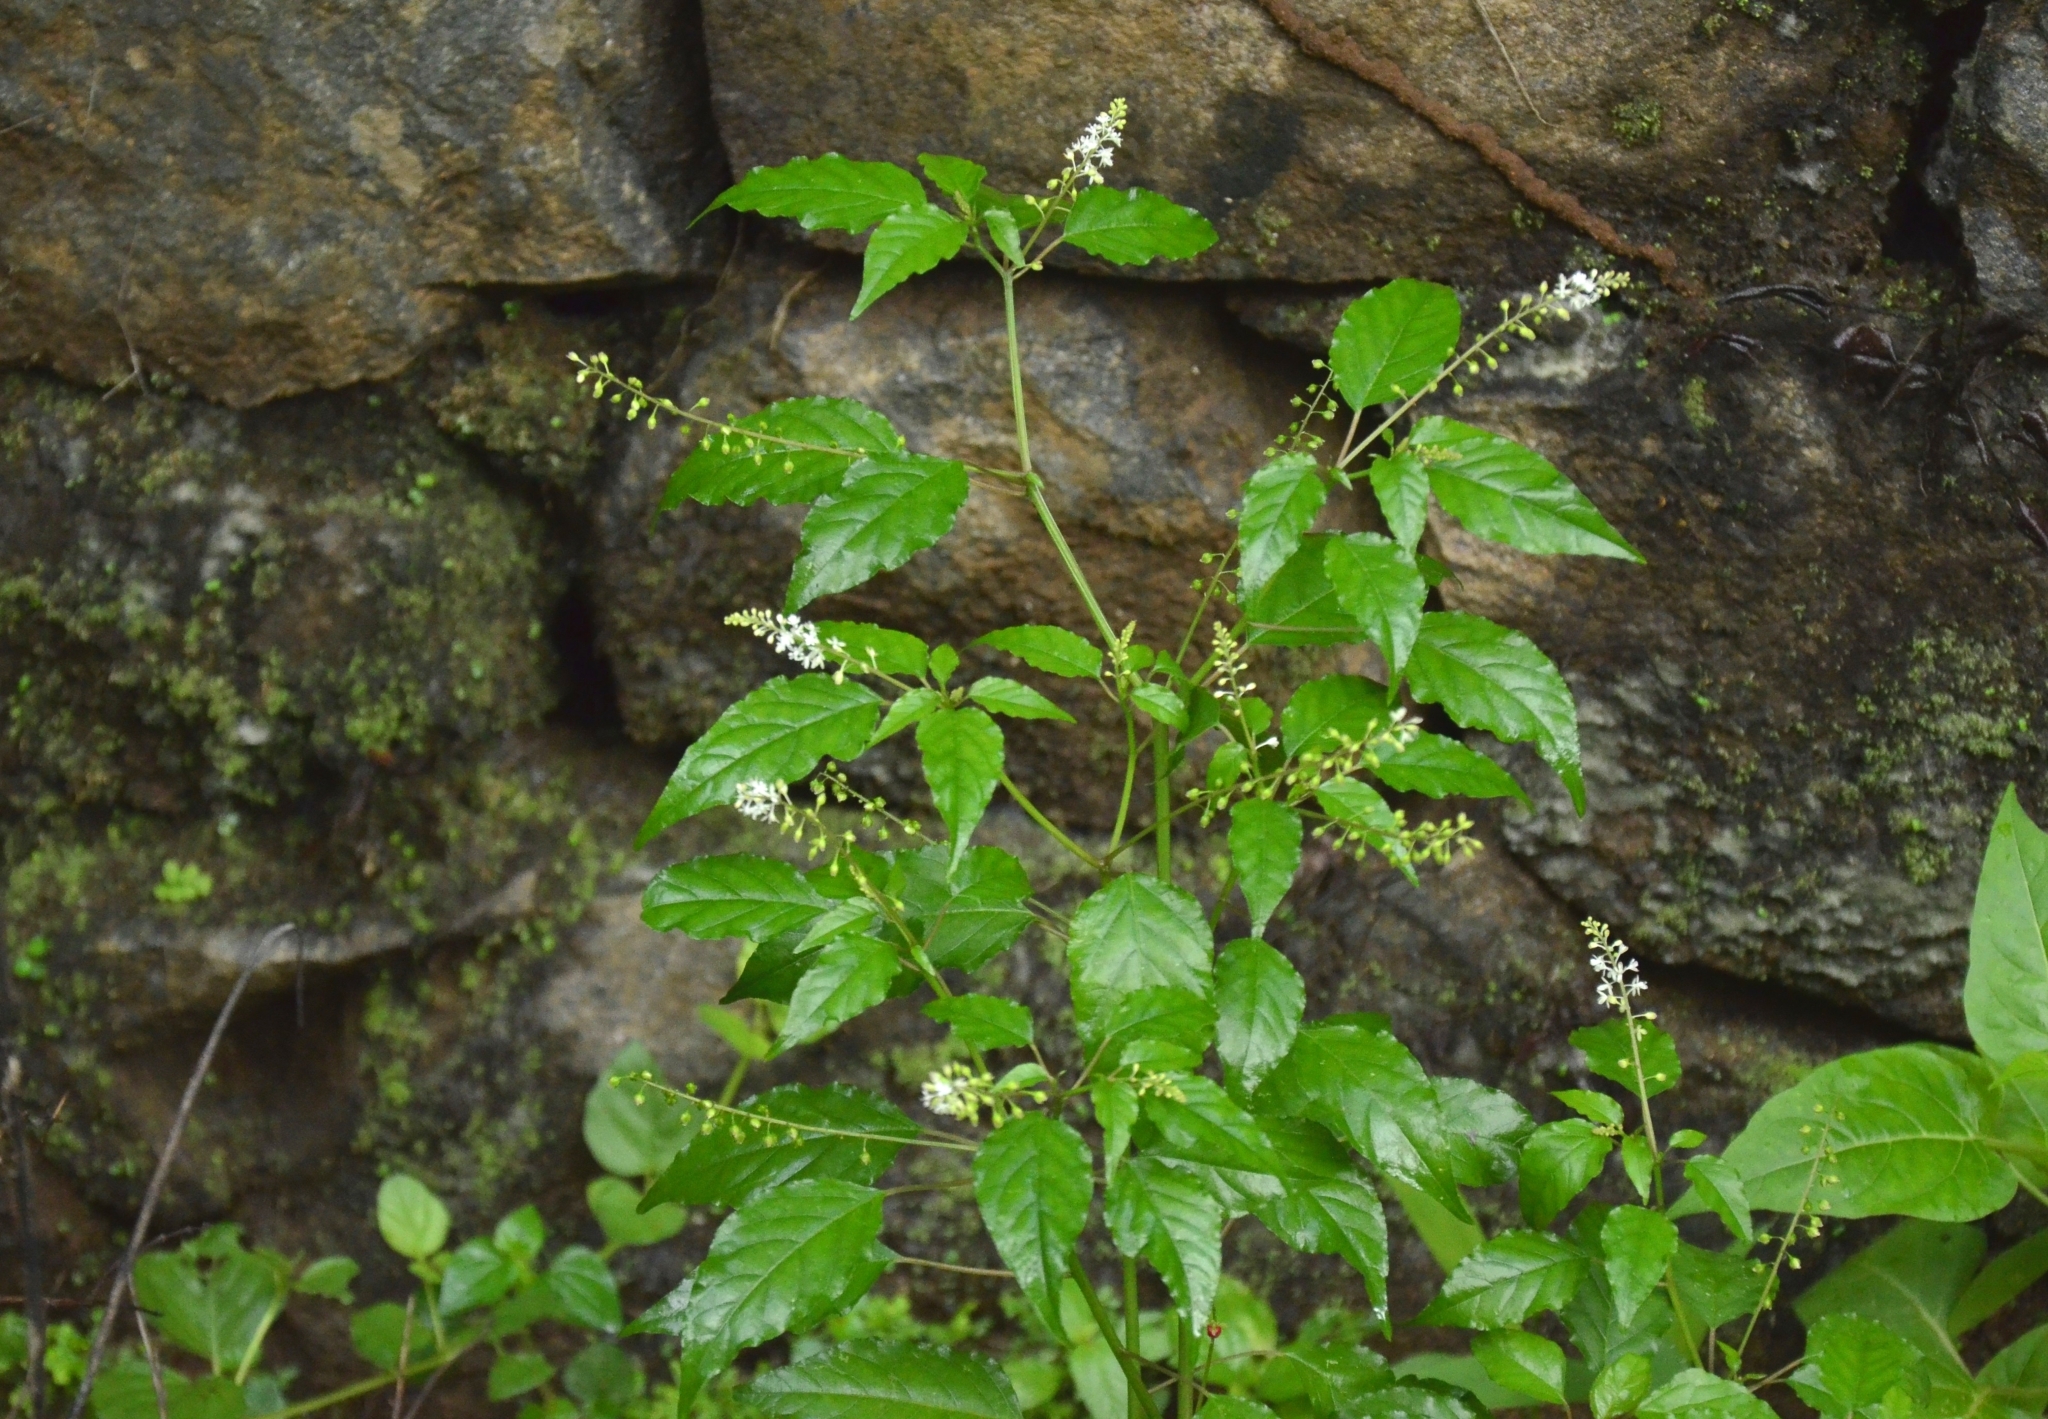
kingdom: Plantae
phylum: Tracheophyta
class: Magnoliopsida
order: Caryophyllales
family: Phytolaccaceae
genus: Rivina
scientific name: Rivina humilis
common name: Rougeplant
